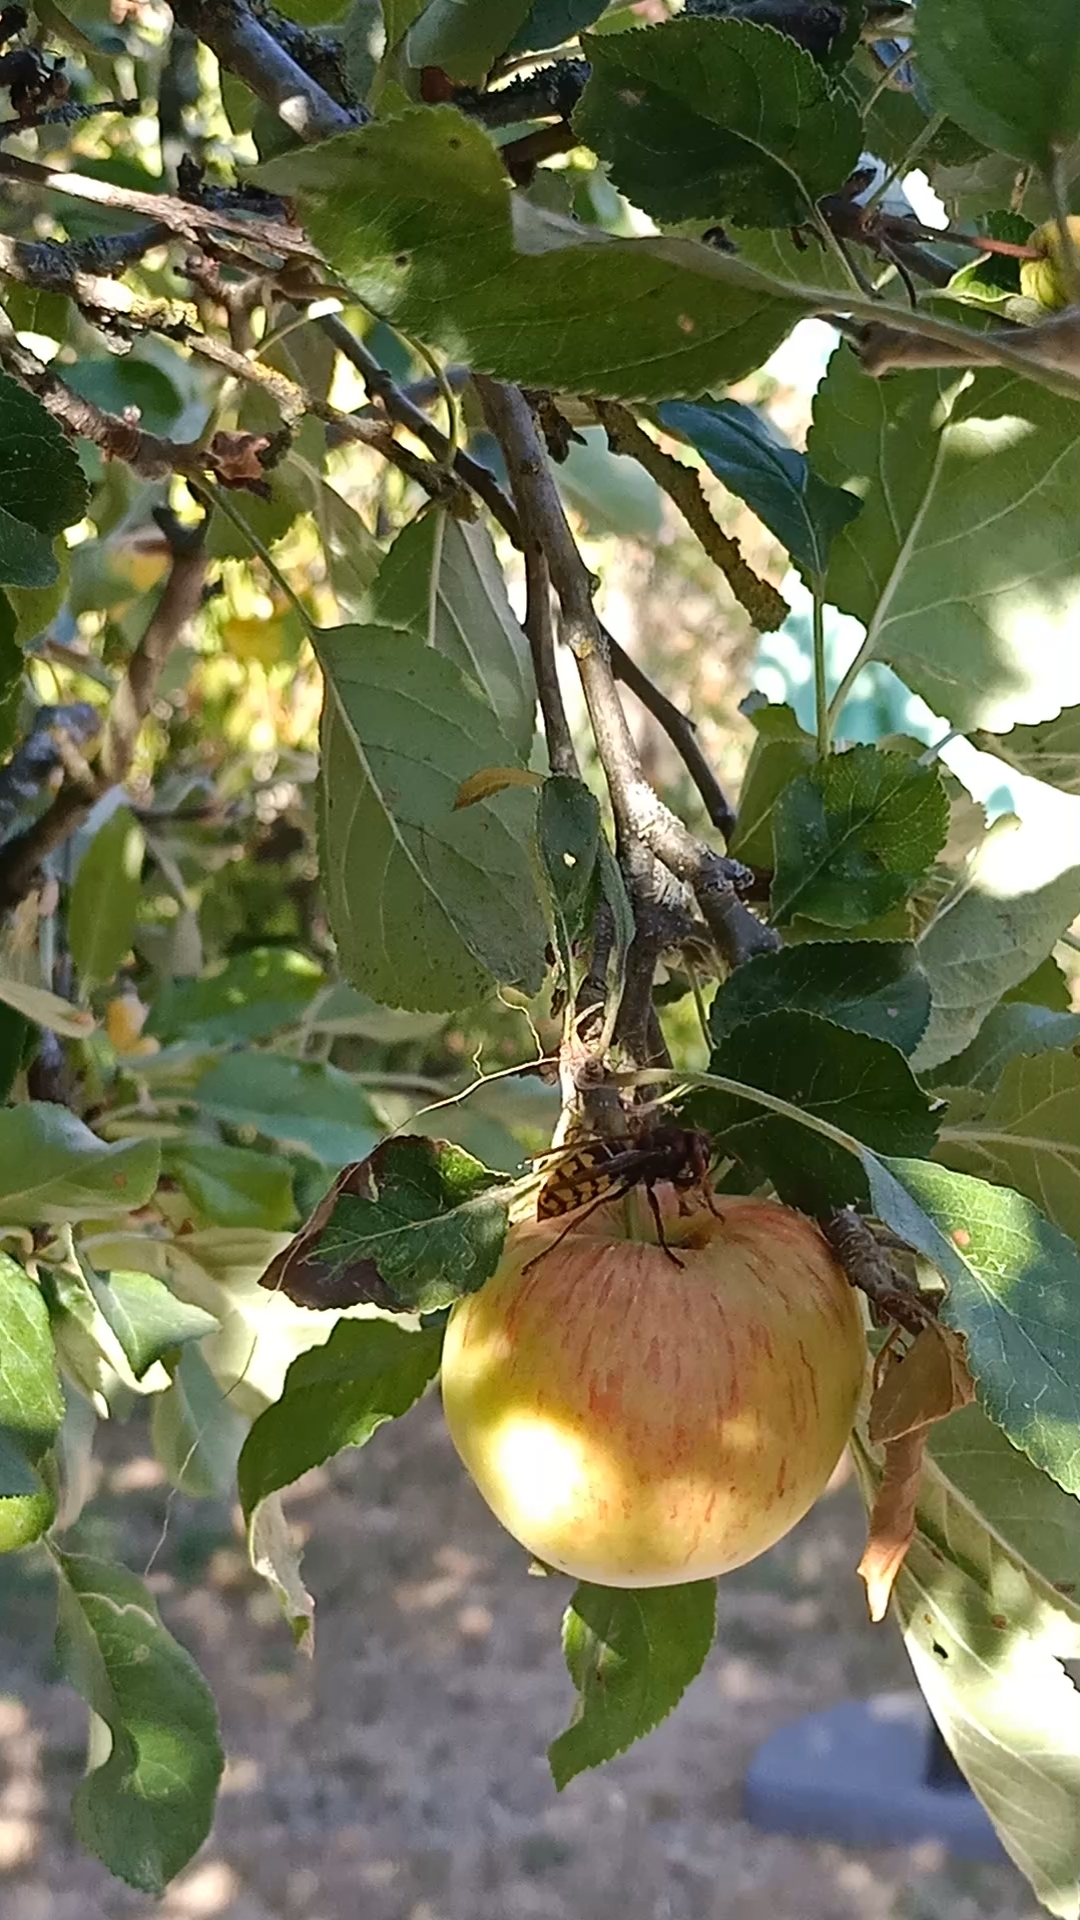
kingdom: Animalia
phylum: Arthropoda
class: Insecta
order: Hymenoptera
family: Vespidae
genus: Vespa
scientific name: Vespa crabro
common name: Hornet
